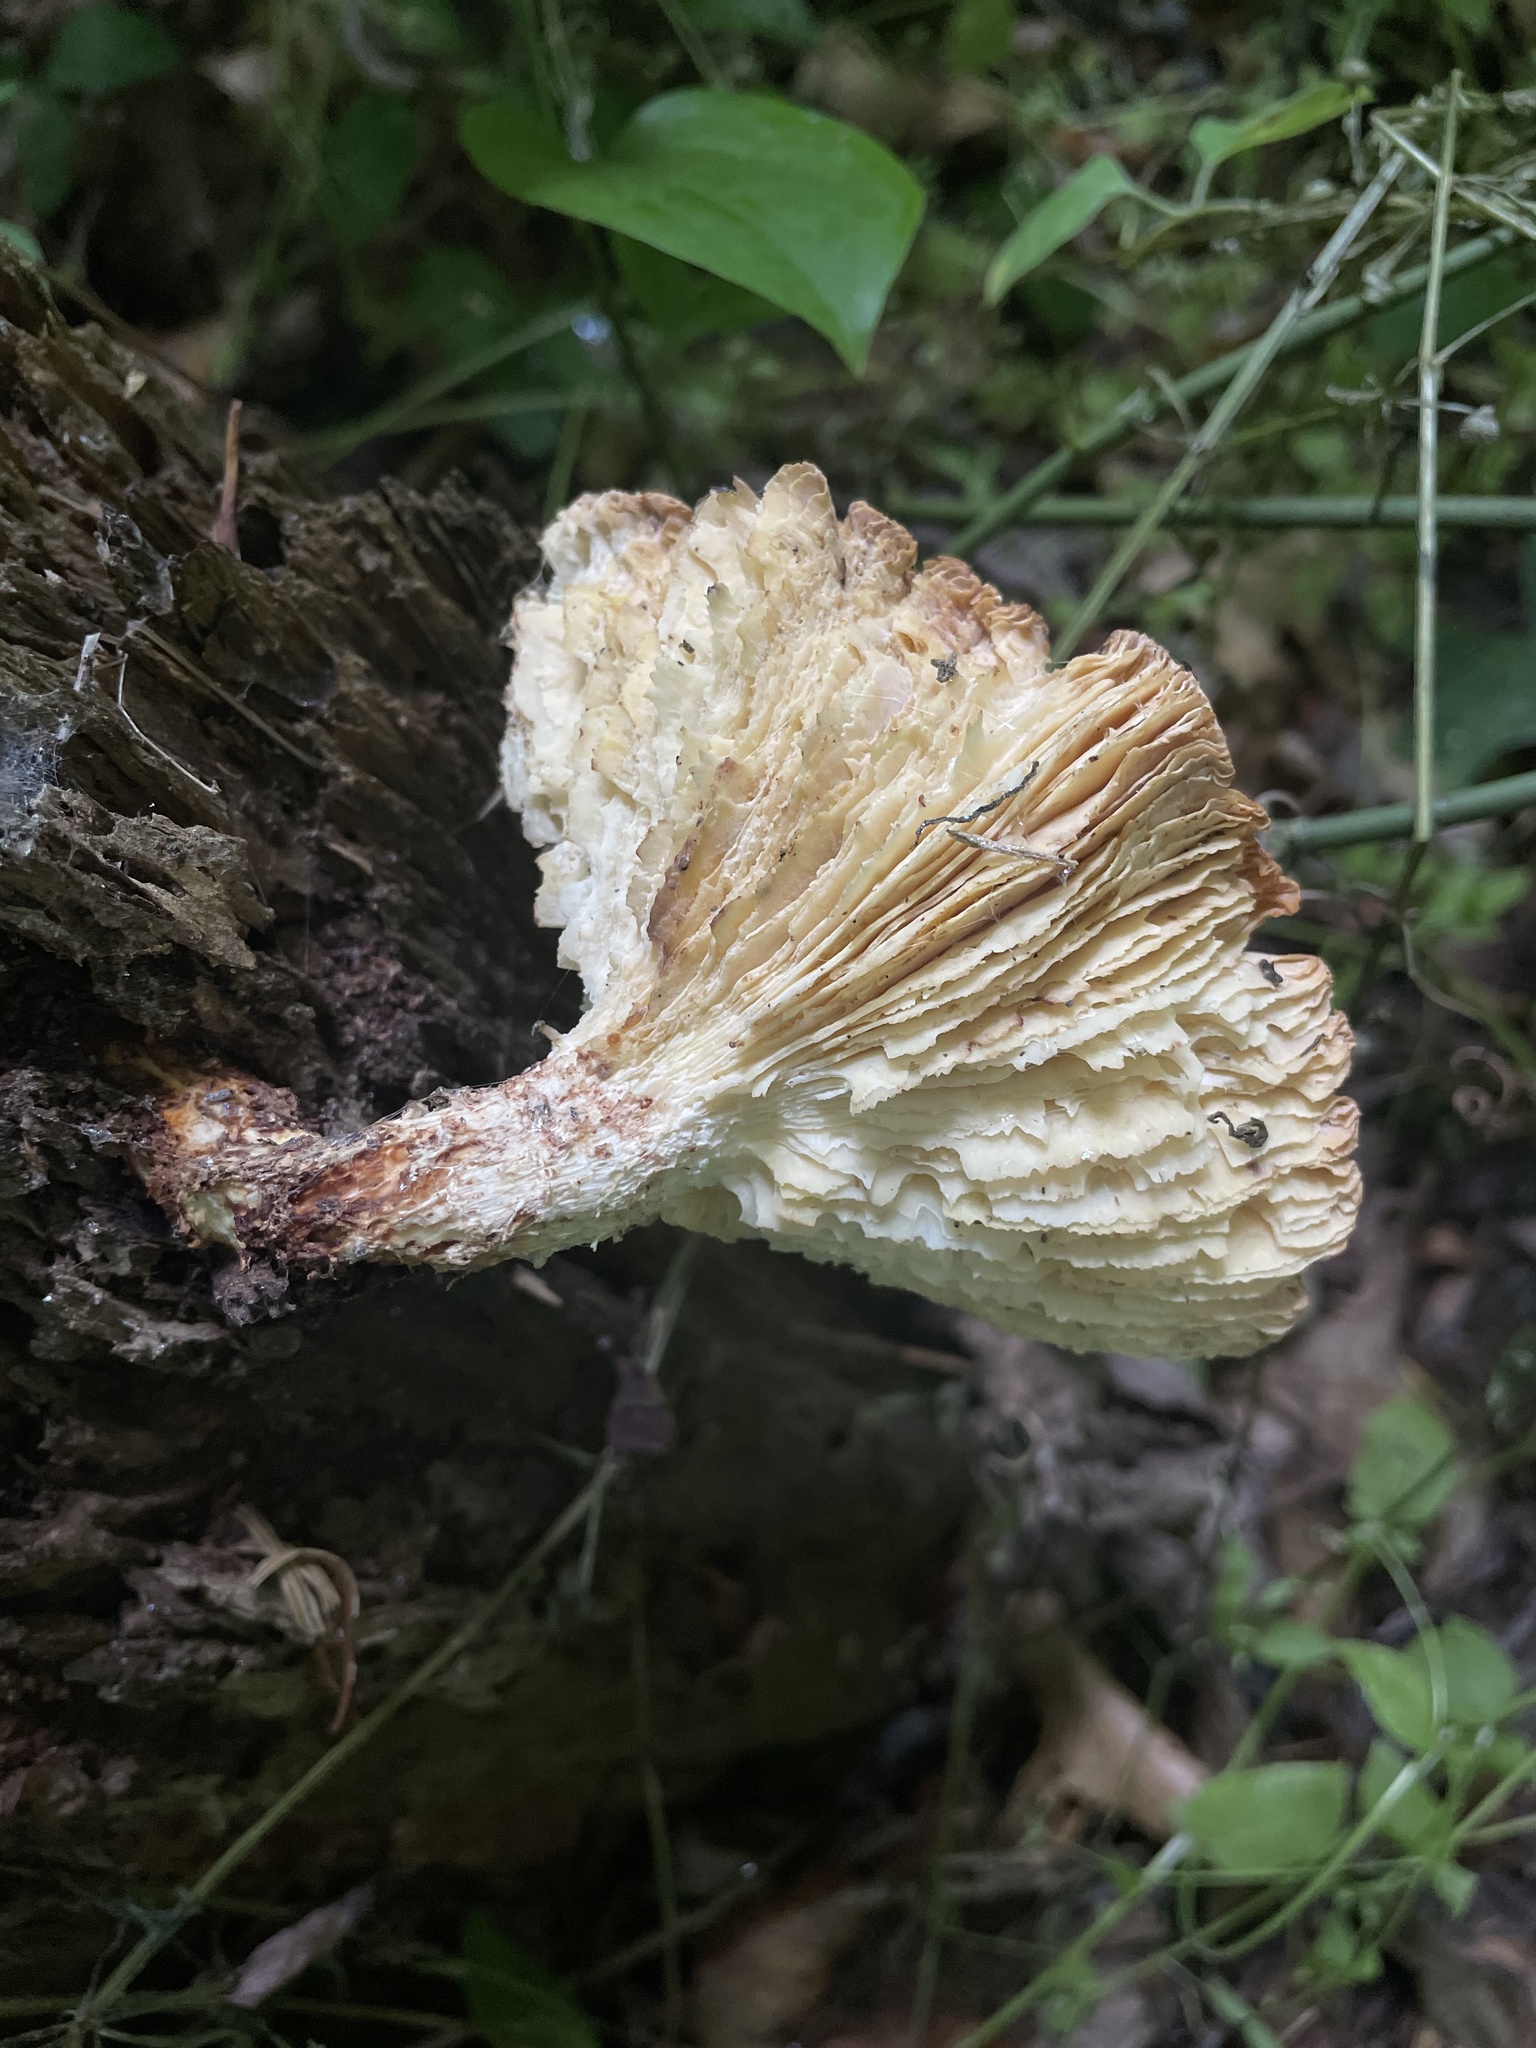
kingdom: Fungi
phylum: Basidiomycota
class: Agaricomycetes
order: Gloeophyllales
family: Gloeophyllaceae
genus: Neolentinus
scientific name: Neolentinus lepideus
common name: Scaly sawgill
